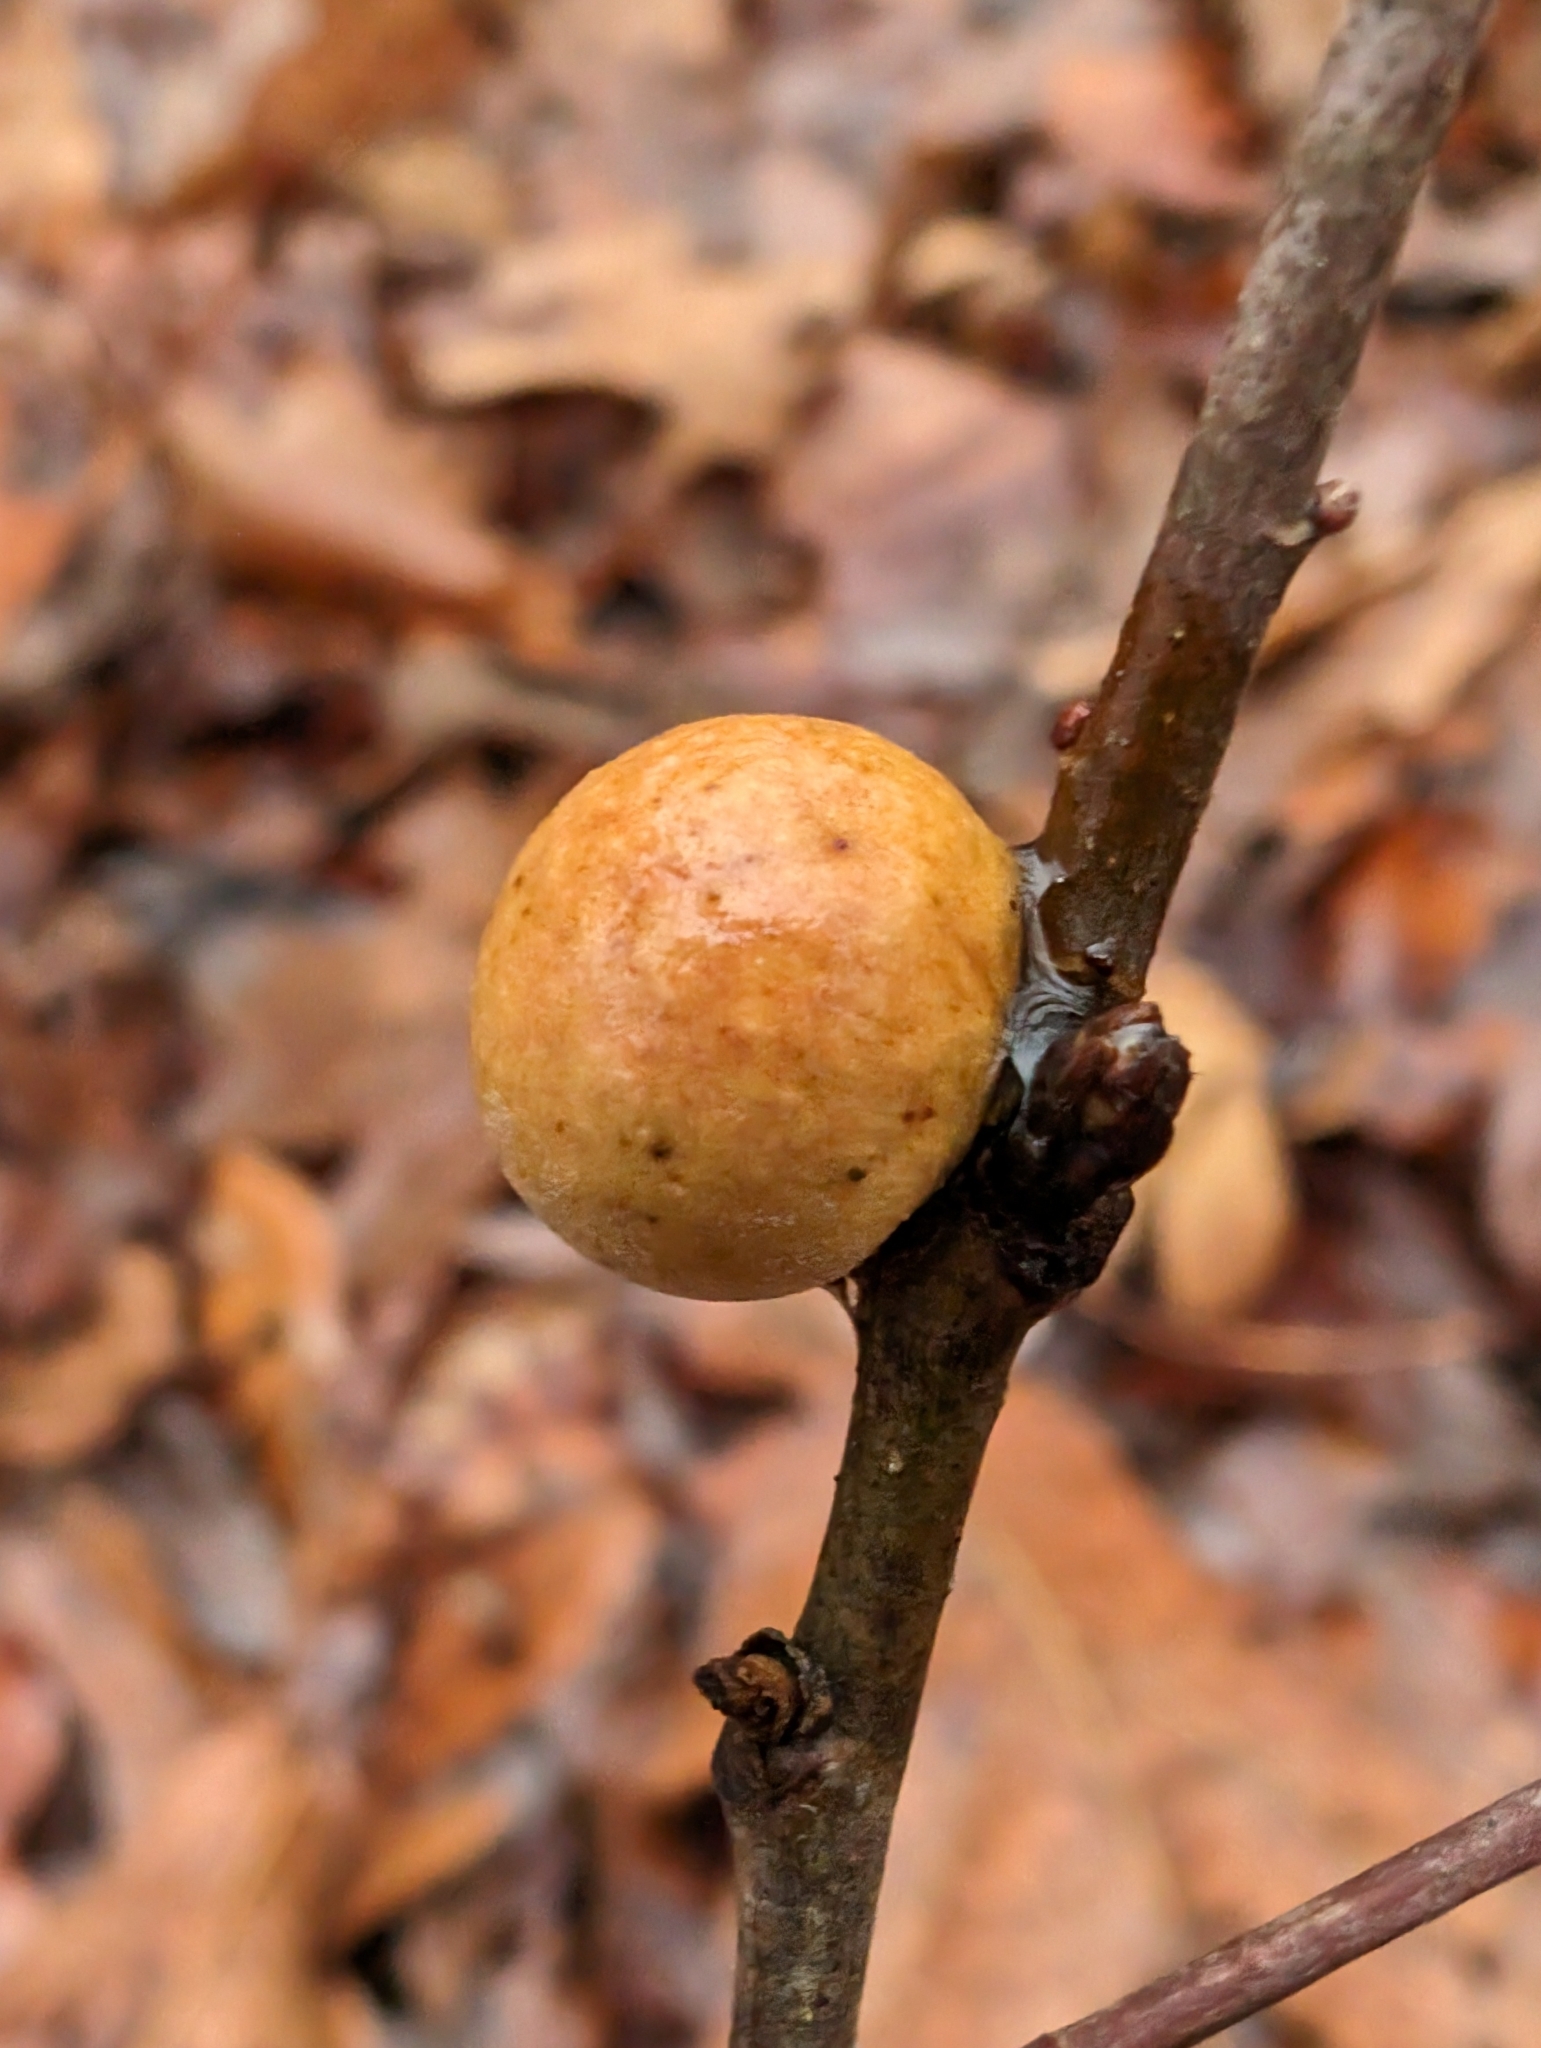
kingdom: Animalia
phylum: Arthropoda
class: Insecta
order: Hymenoptera
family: Cynipidae
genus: Disholcaspis
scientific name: Disholcaspis quercusglobulus
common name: Round bullet gall wasp
